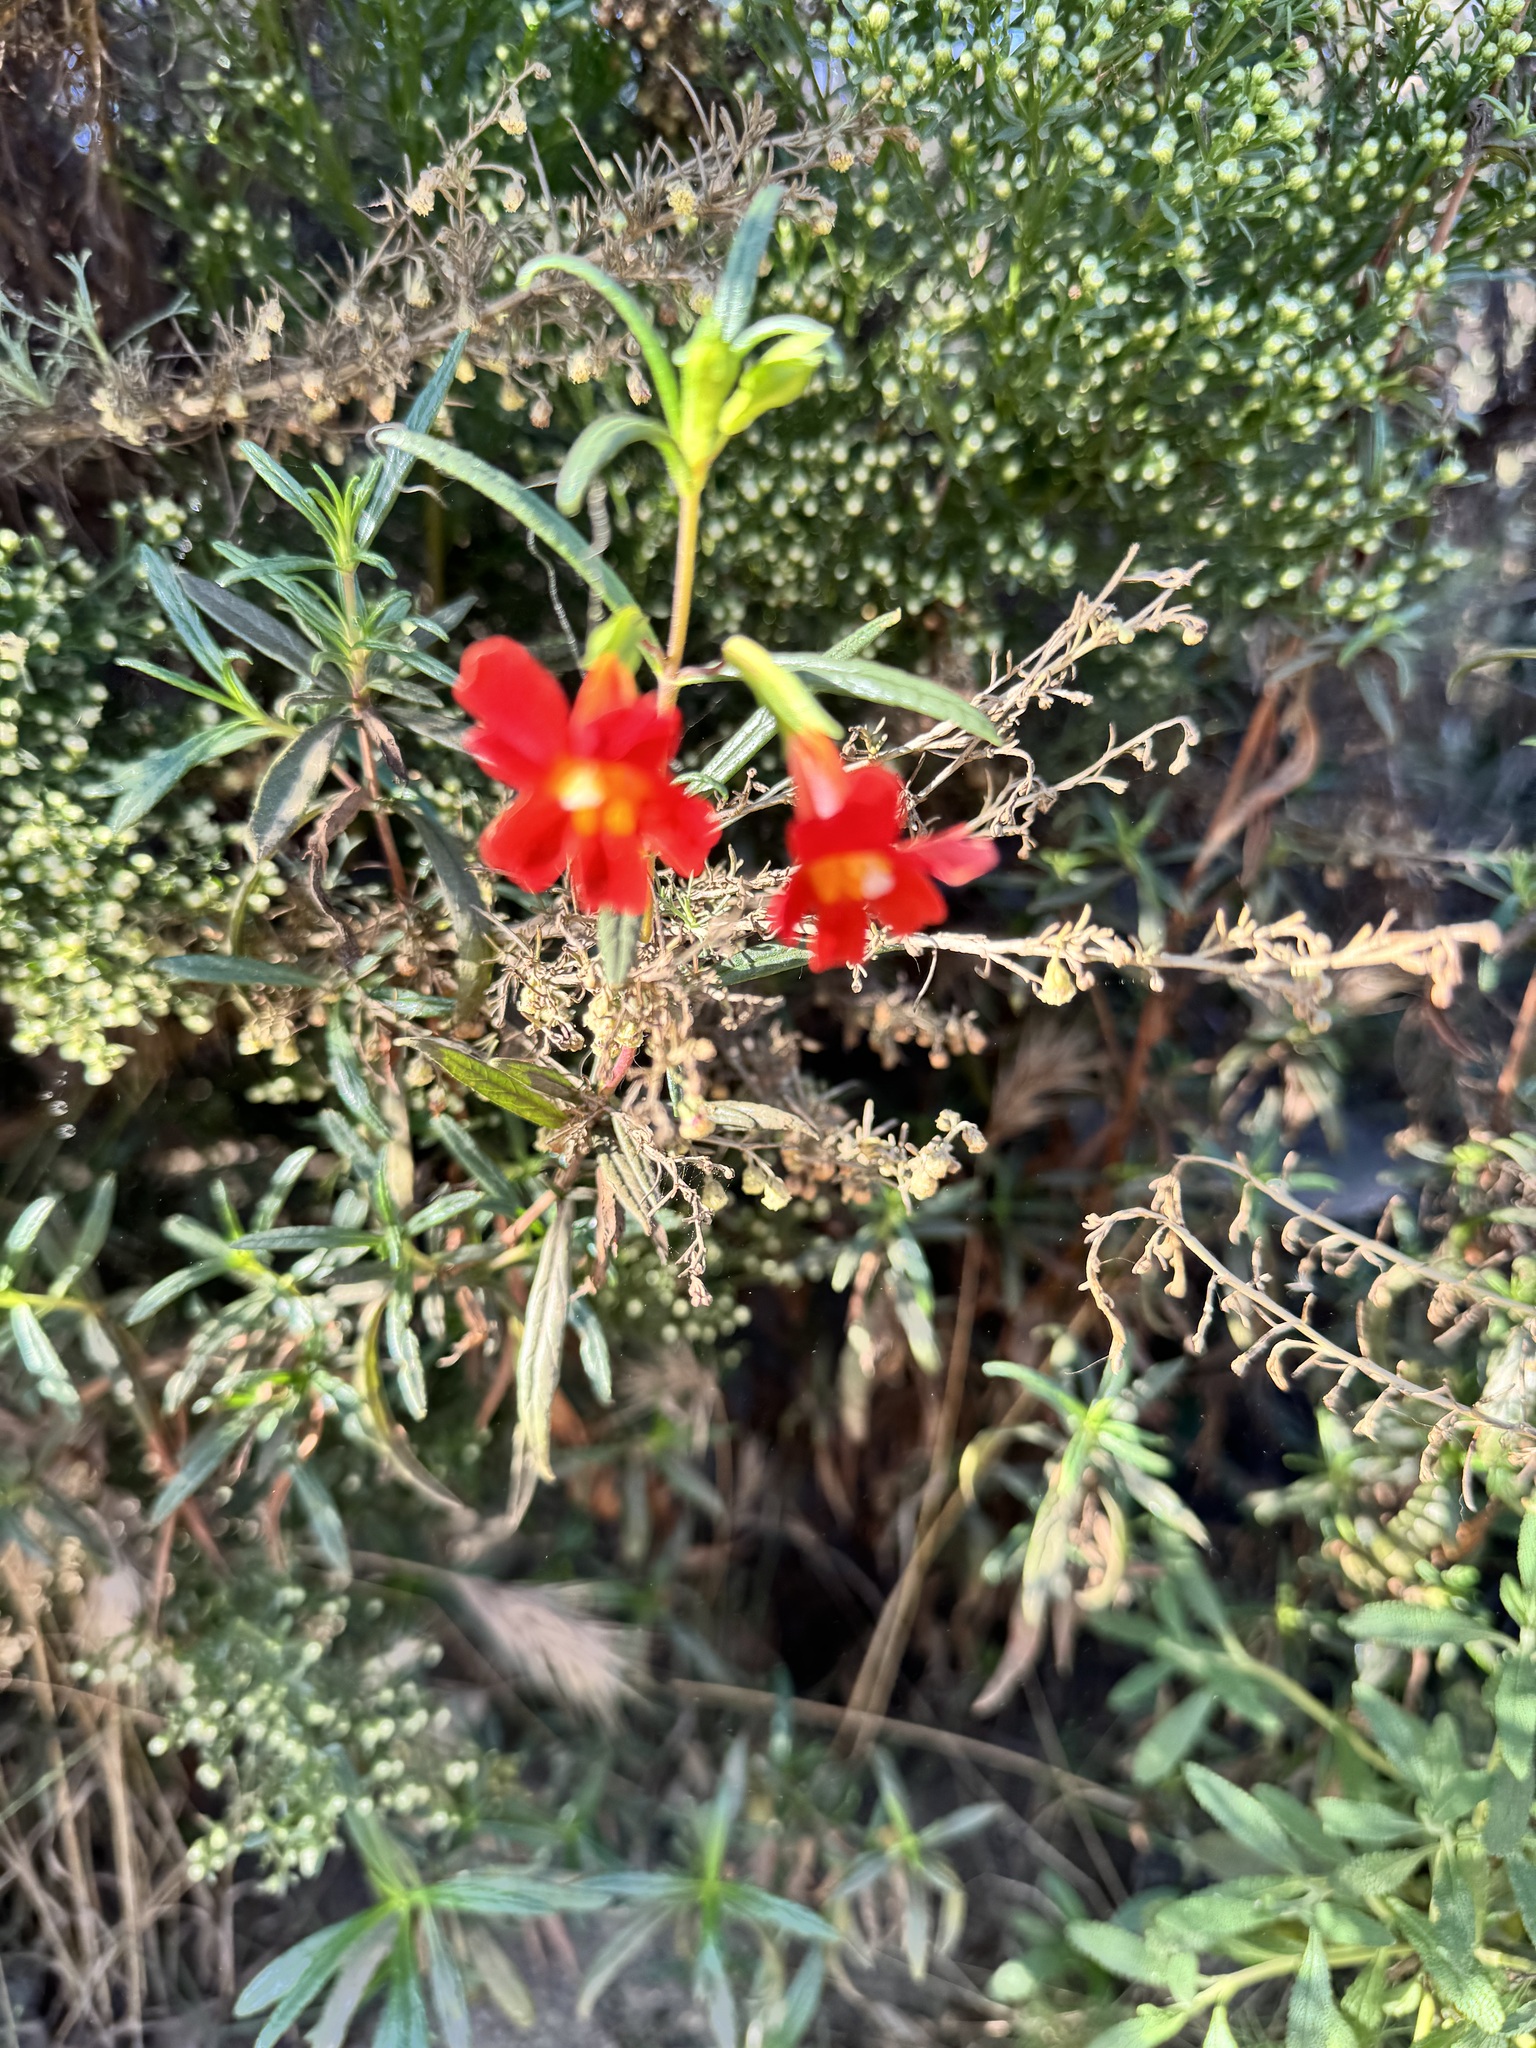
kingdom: Plantae
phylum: Tracheophyta
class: Magnoliopsida
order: Lamiales
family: Phrymaceae
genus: Diplacus
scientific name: Diplacus puniceus
